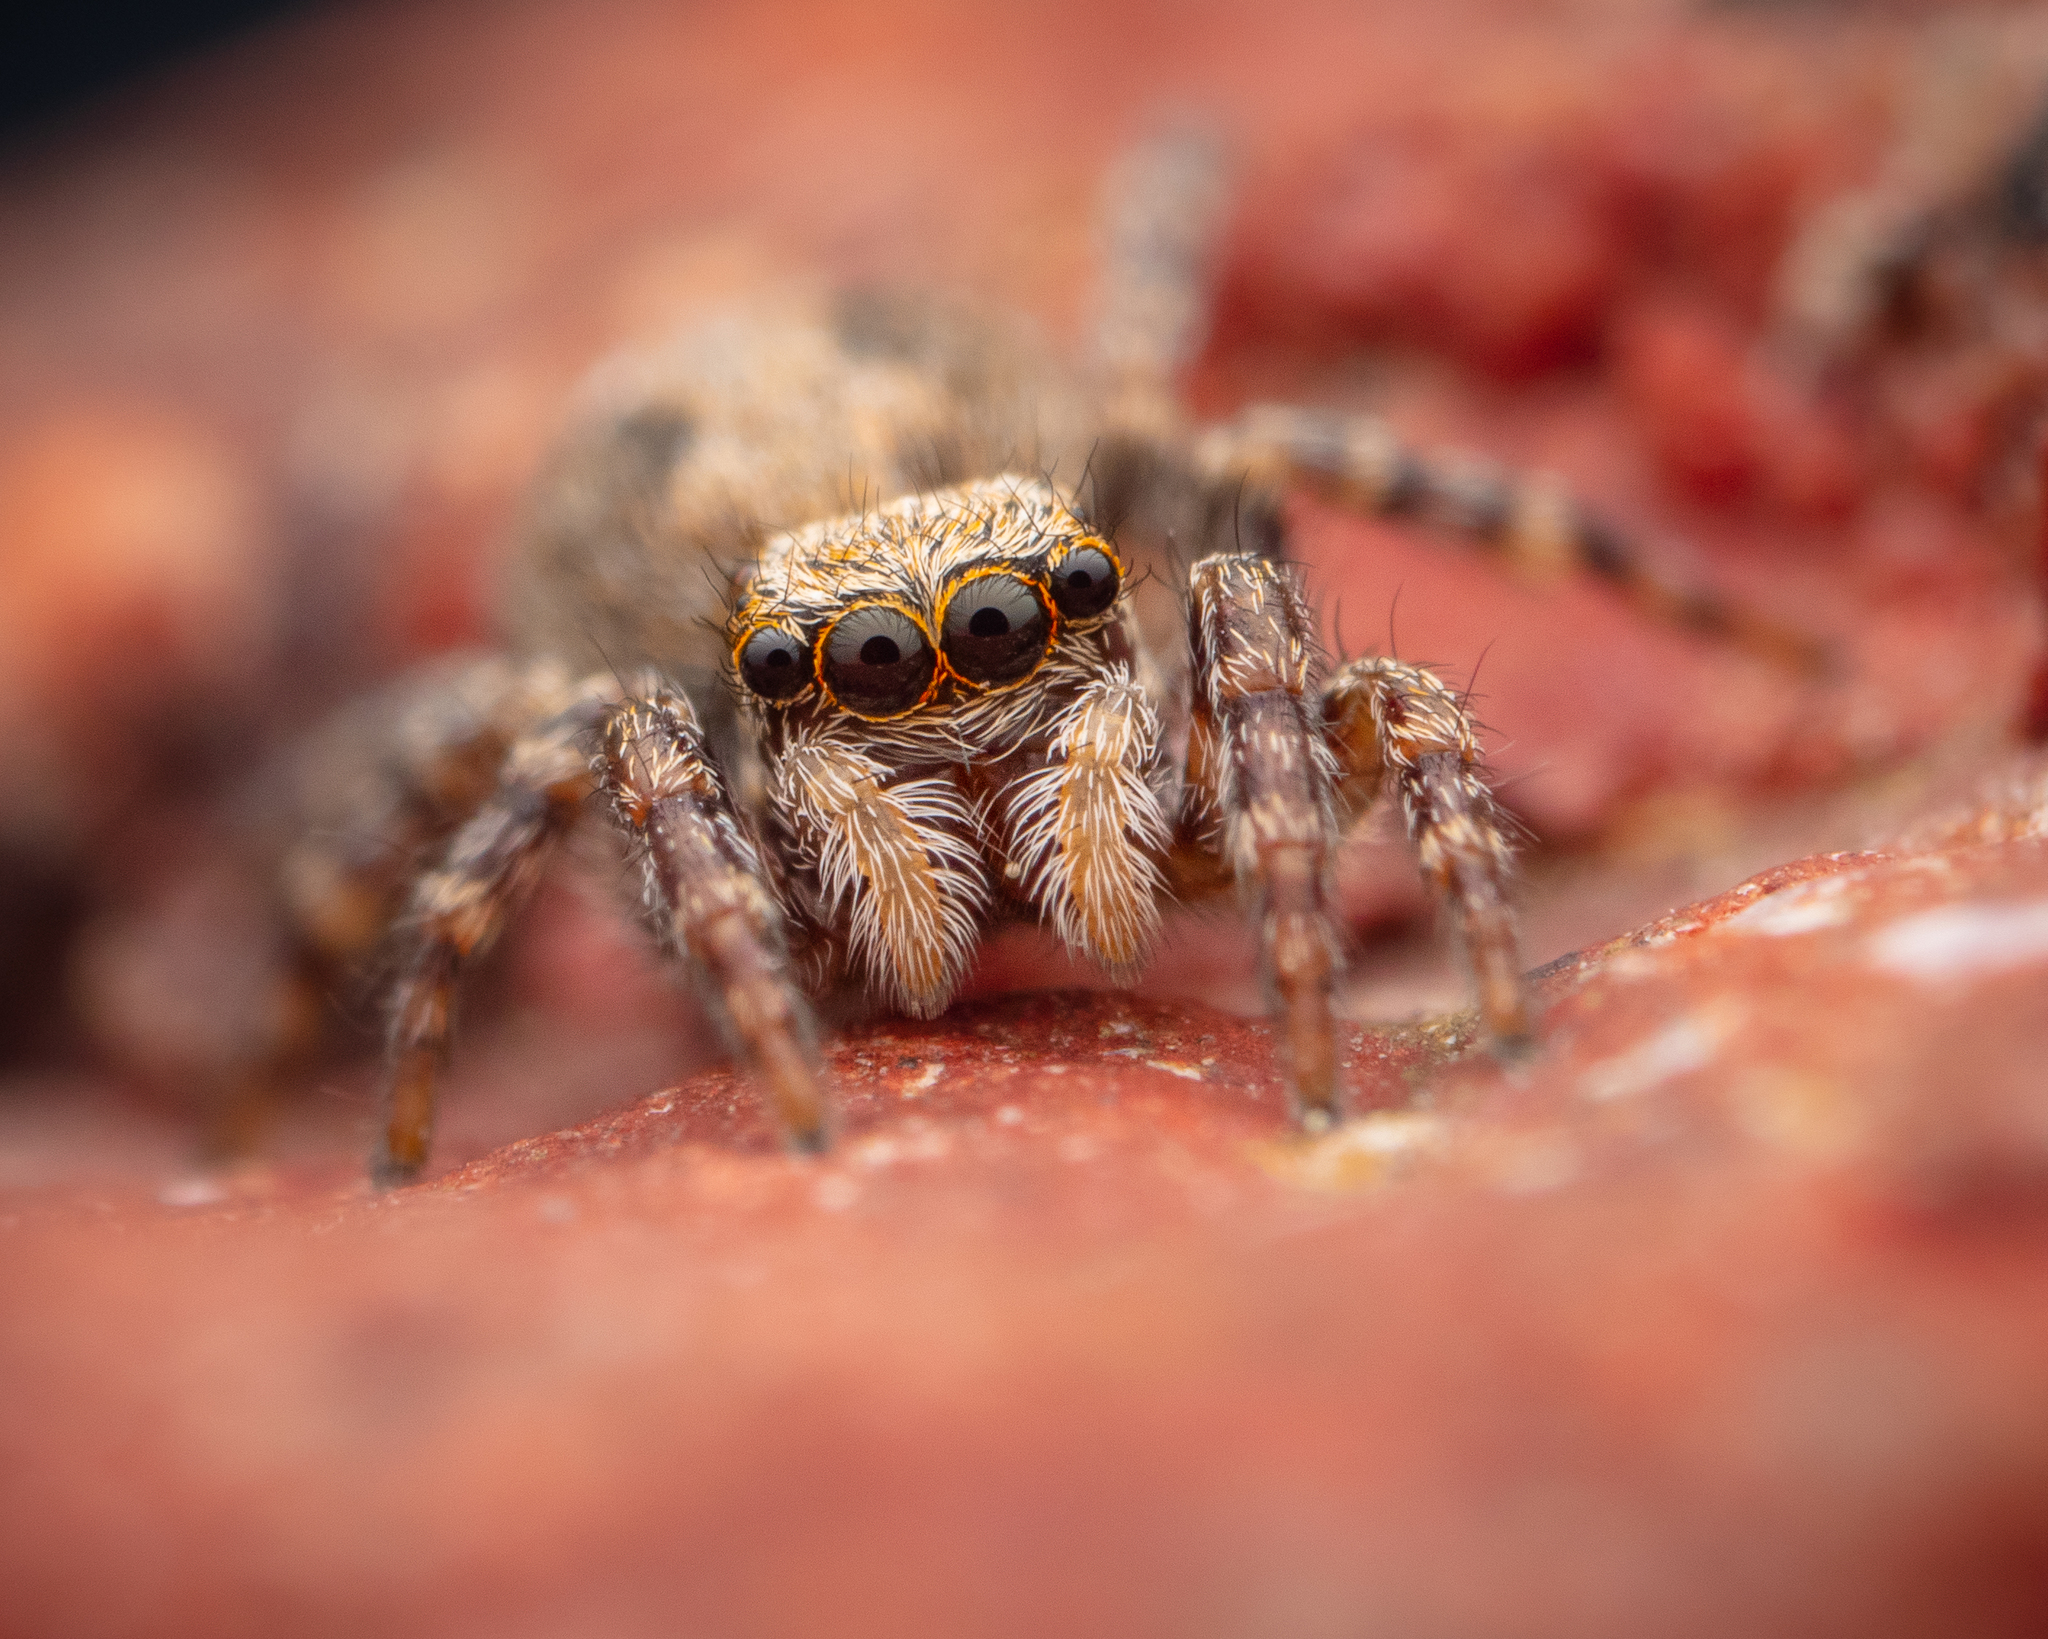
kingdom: Animalia
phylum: Arthropoda
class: Arachnida
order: Araneae
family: Salticidae
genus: Pseudeuophrys
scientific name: Pseudeuophrys lanigera
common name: Jumping spider
